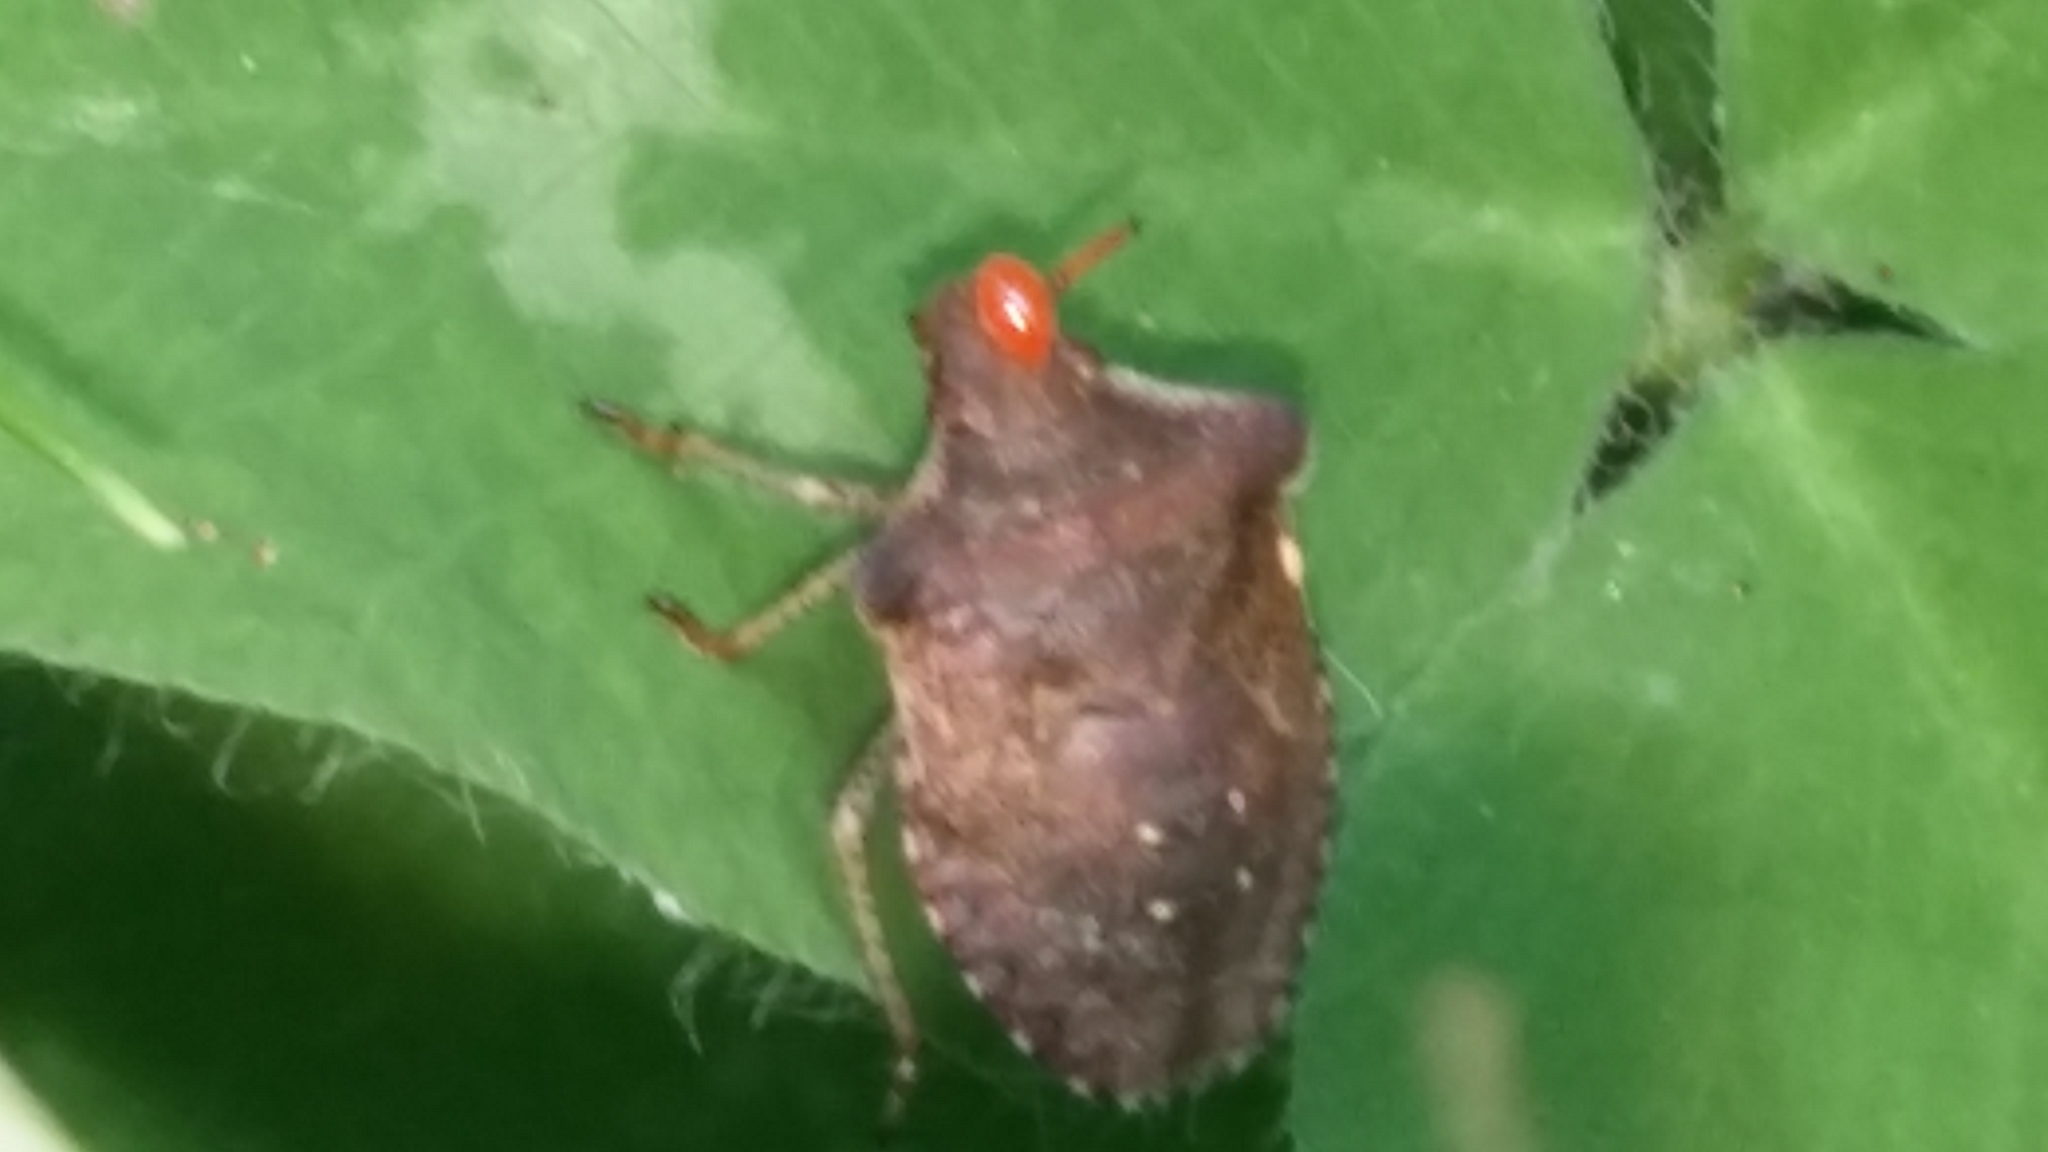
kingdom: Animalia
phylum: Arthropoda
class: Insecta
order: Hemiptera
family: Pentatomidae
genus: Euschistus
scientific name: Euschistus tristigmus
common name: Dusky stink bug
